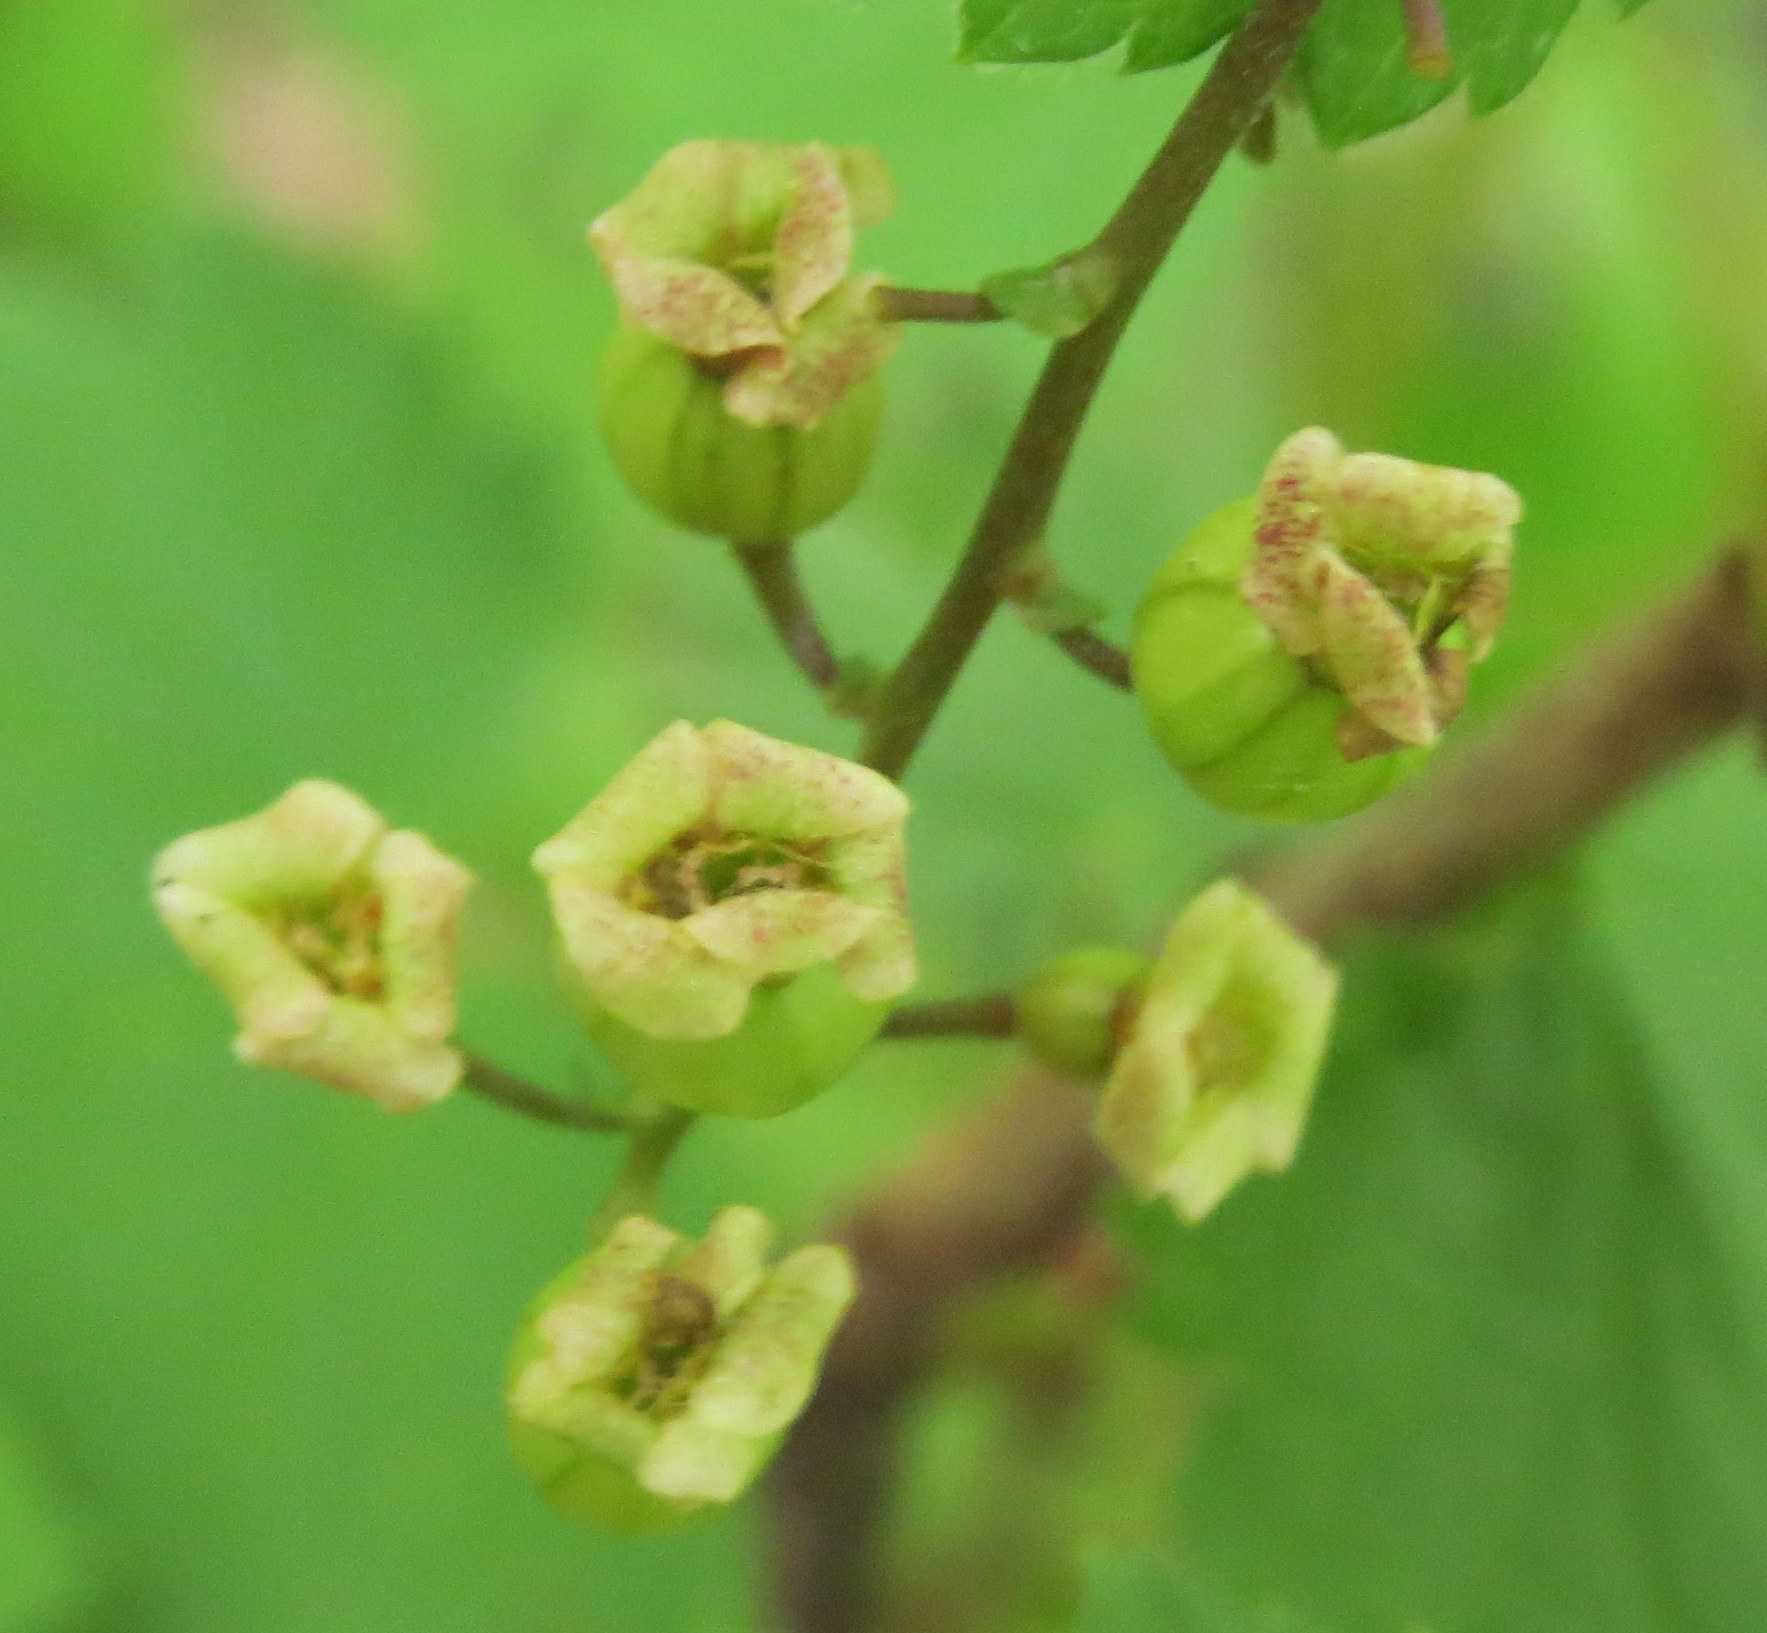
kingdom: Plantae
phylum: Tracheophyta
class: Magnoliopsida
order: Saxifragales
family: Grossulariaceae
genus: Ribes
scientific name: Ribes rubrum
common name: Red currant
